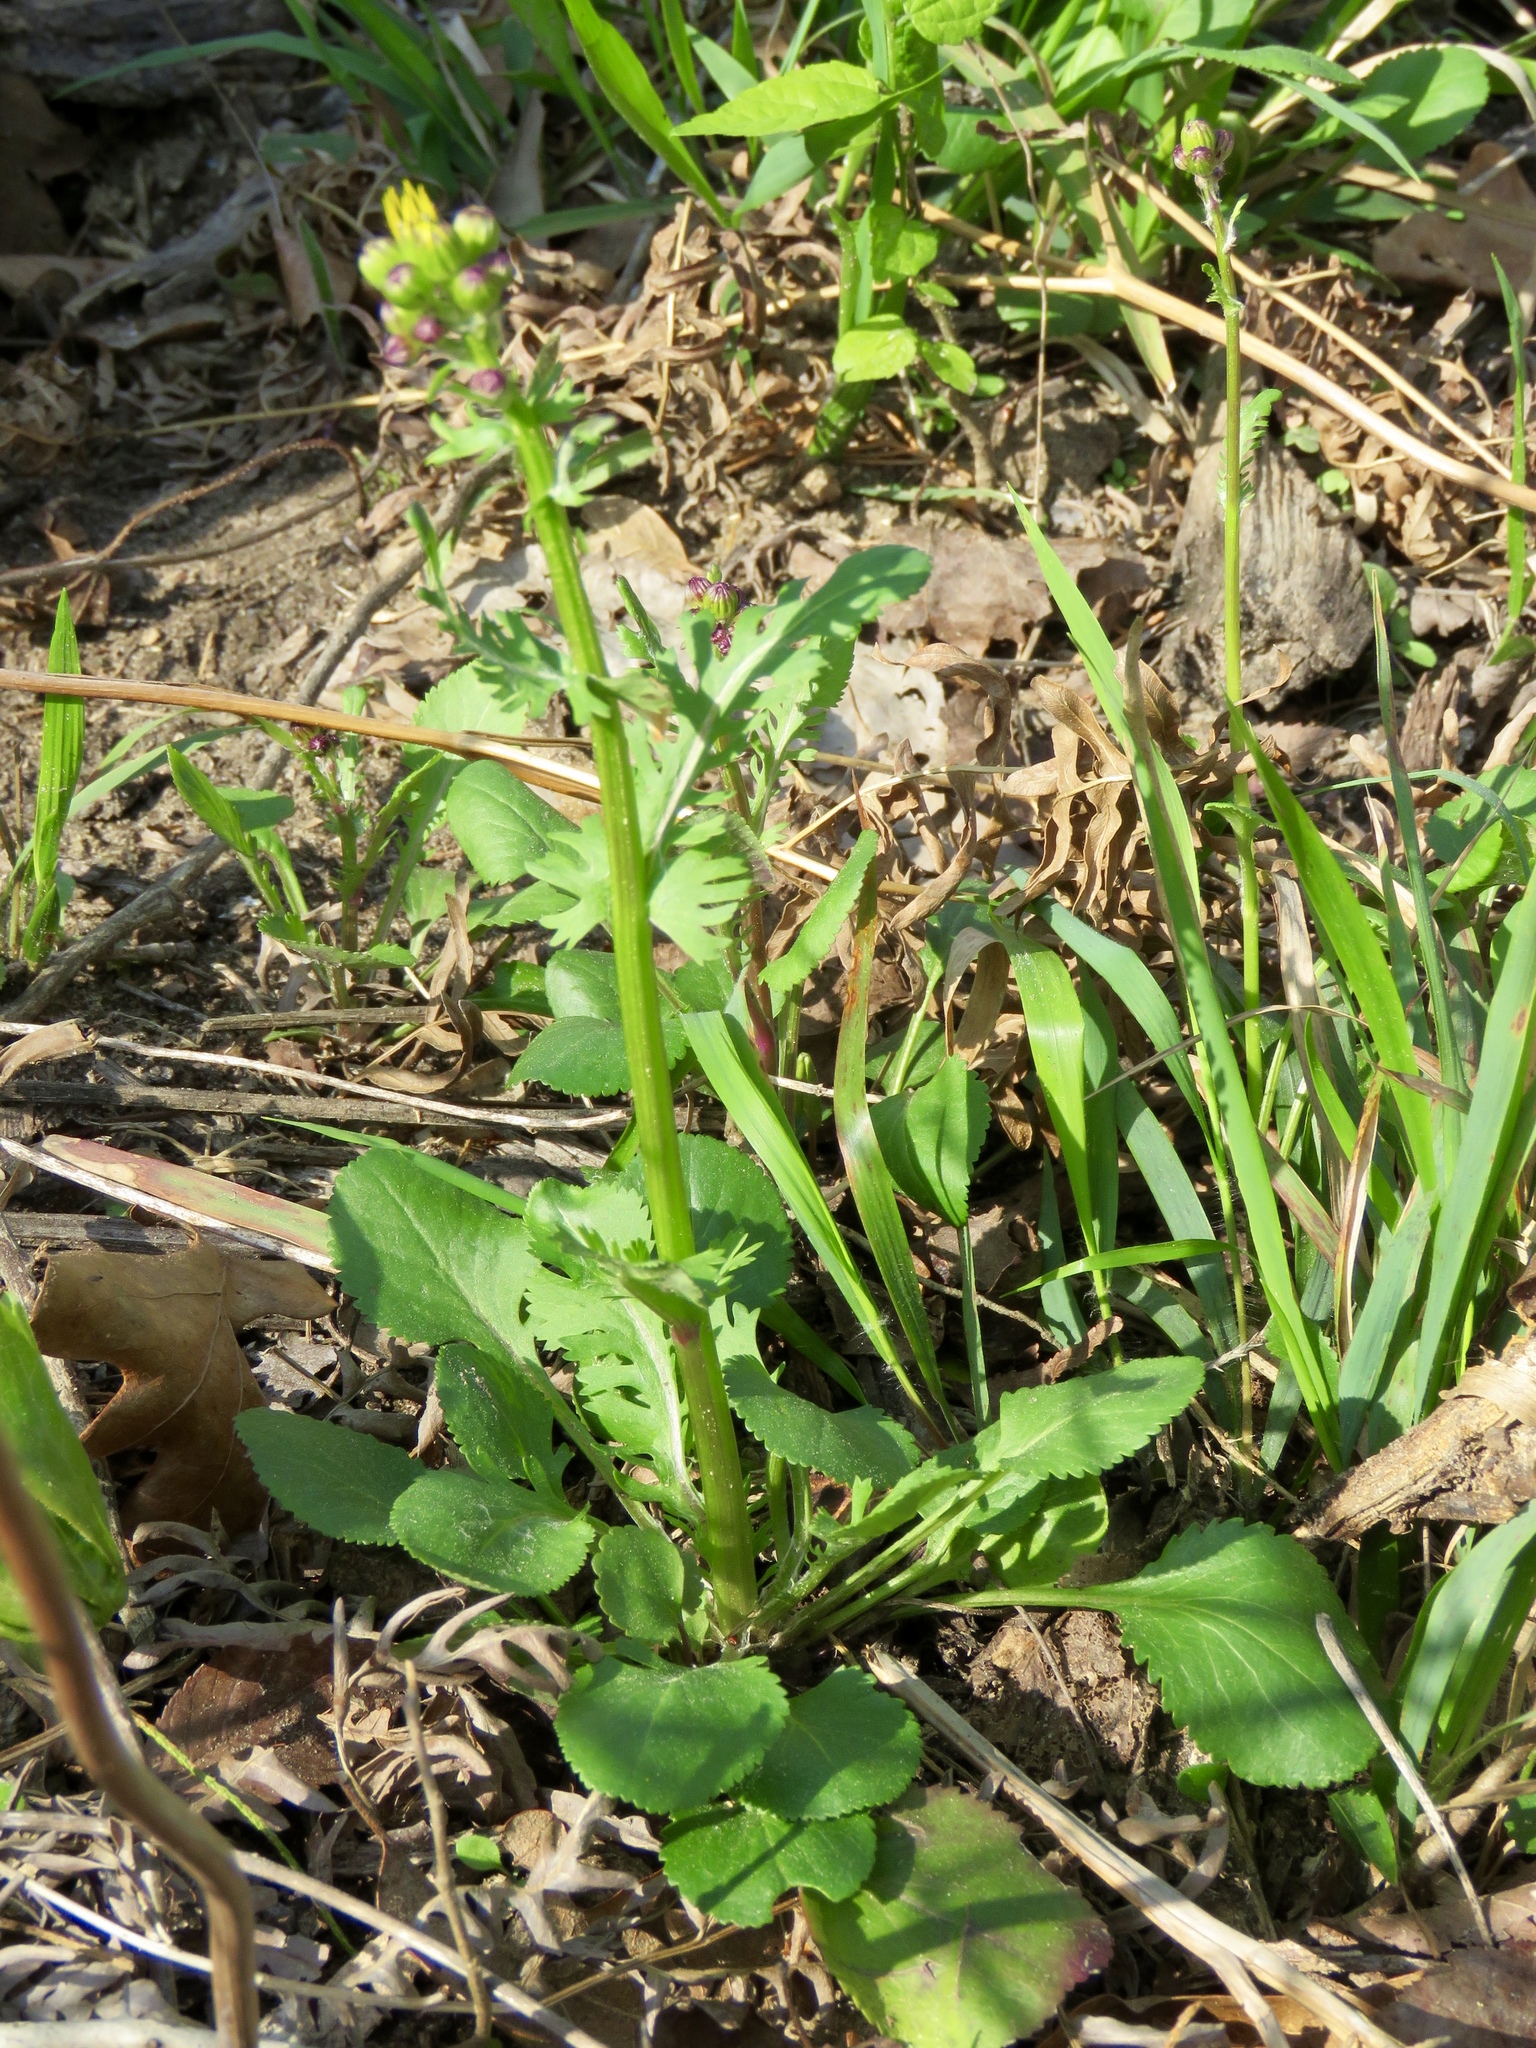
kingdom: Plantae
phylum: Tracheophyta
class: Magnoliopsida
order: Asterales
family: Asteraceae
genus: Packera
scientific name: Packera obovata
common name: Round-leaf ragwort
